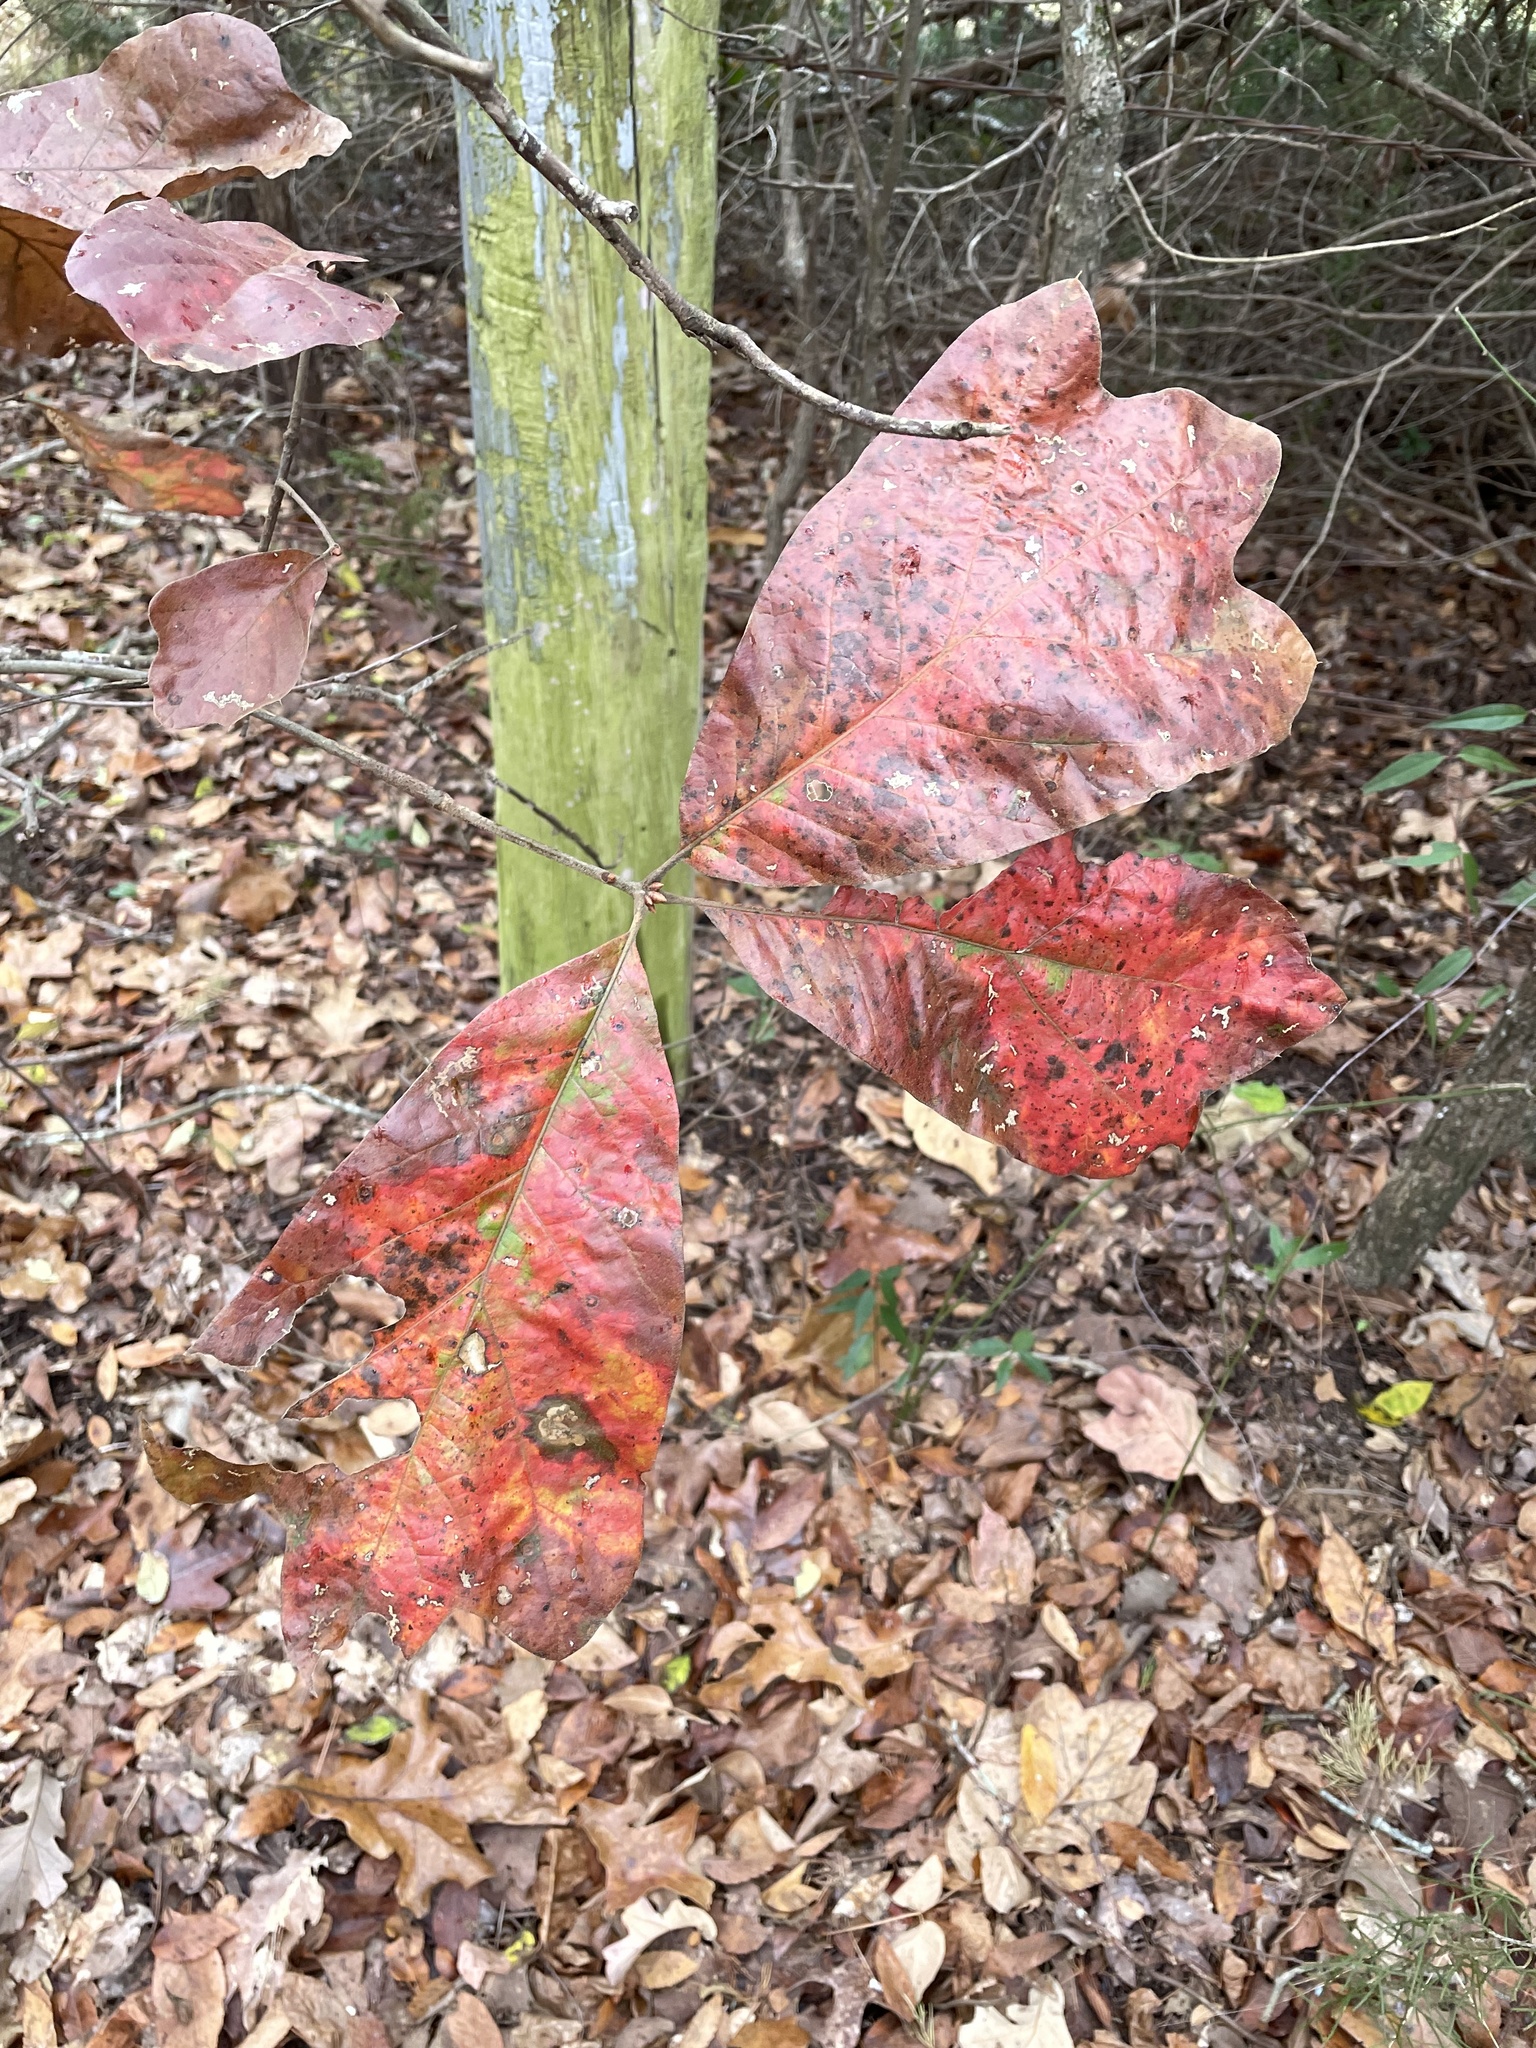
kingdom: Plantae
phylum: Tracheophyta
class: Magnoliopsida
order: Fagales
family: Fagaceae
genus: Quercus
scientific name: Quercus falcata
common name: Southern red oak
